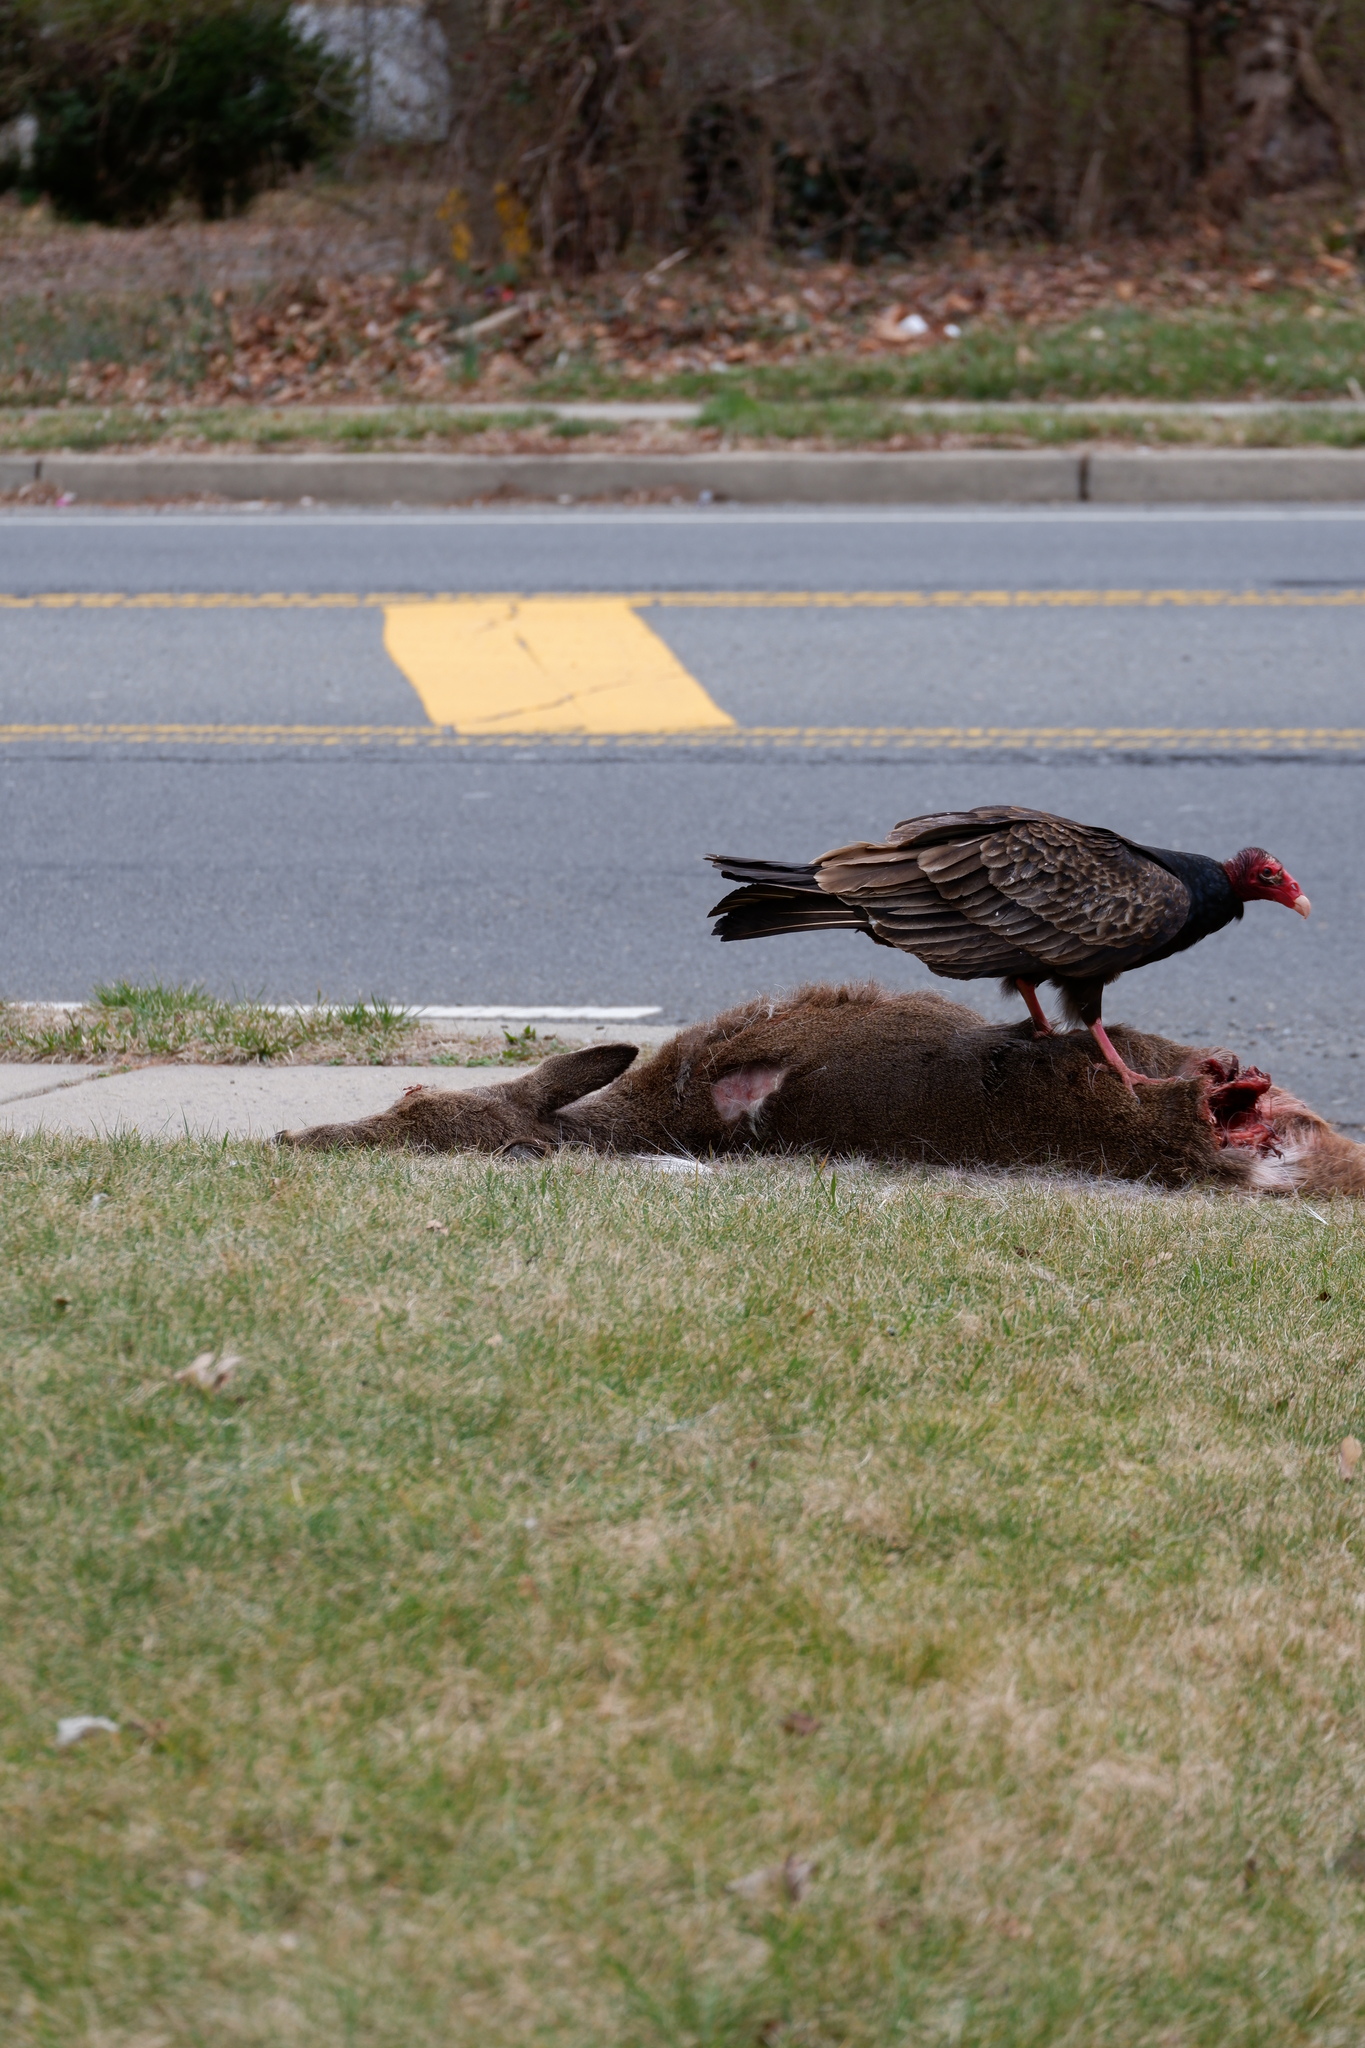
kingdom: Animalia
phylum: Chordata
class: Mammalia
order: Artiodactyla
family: Cervidae
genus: Odocoileus
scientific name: Odocoileus virginianus
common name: White-tailed deer
